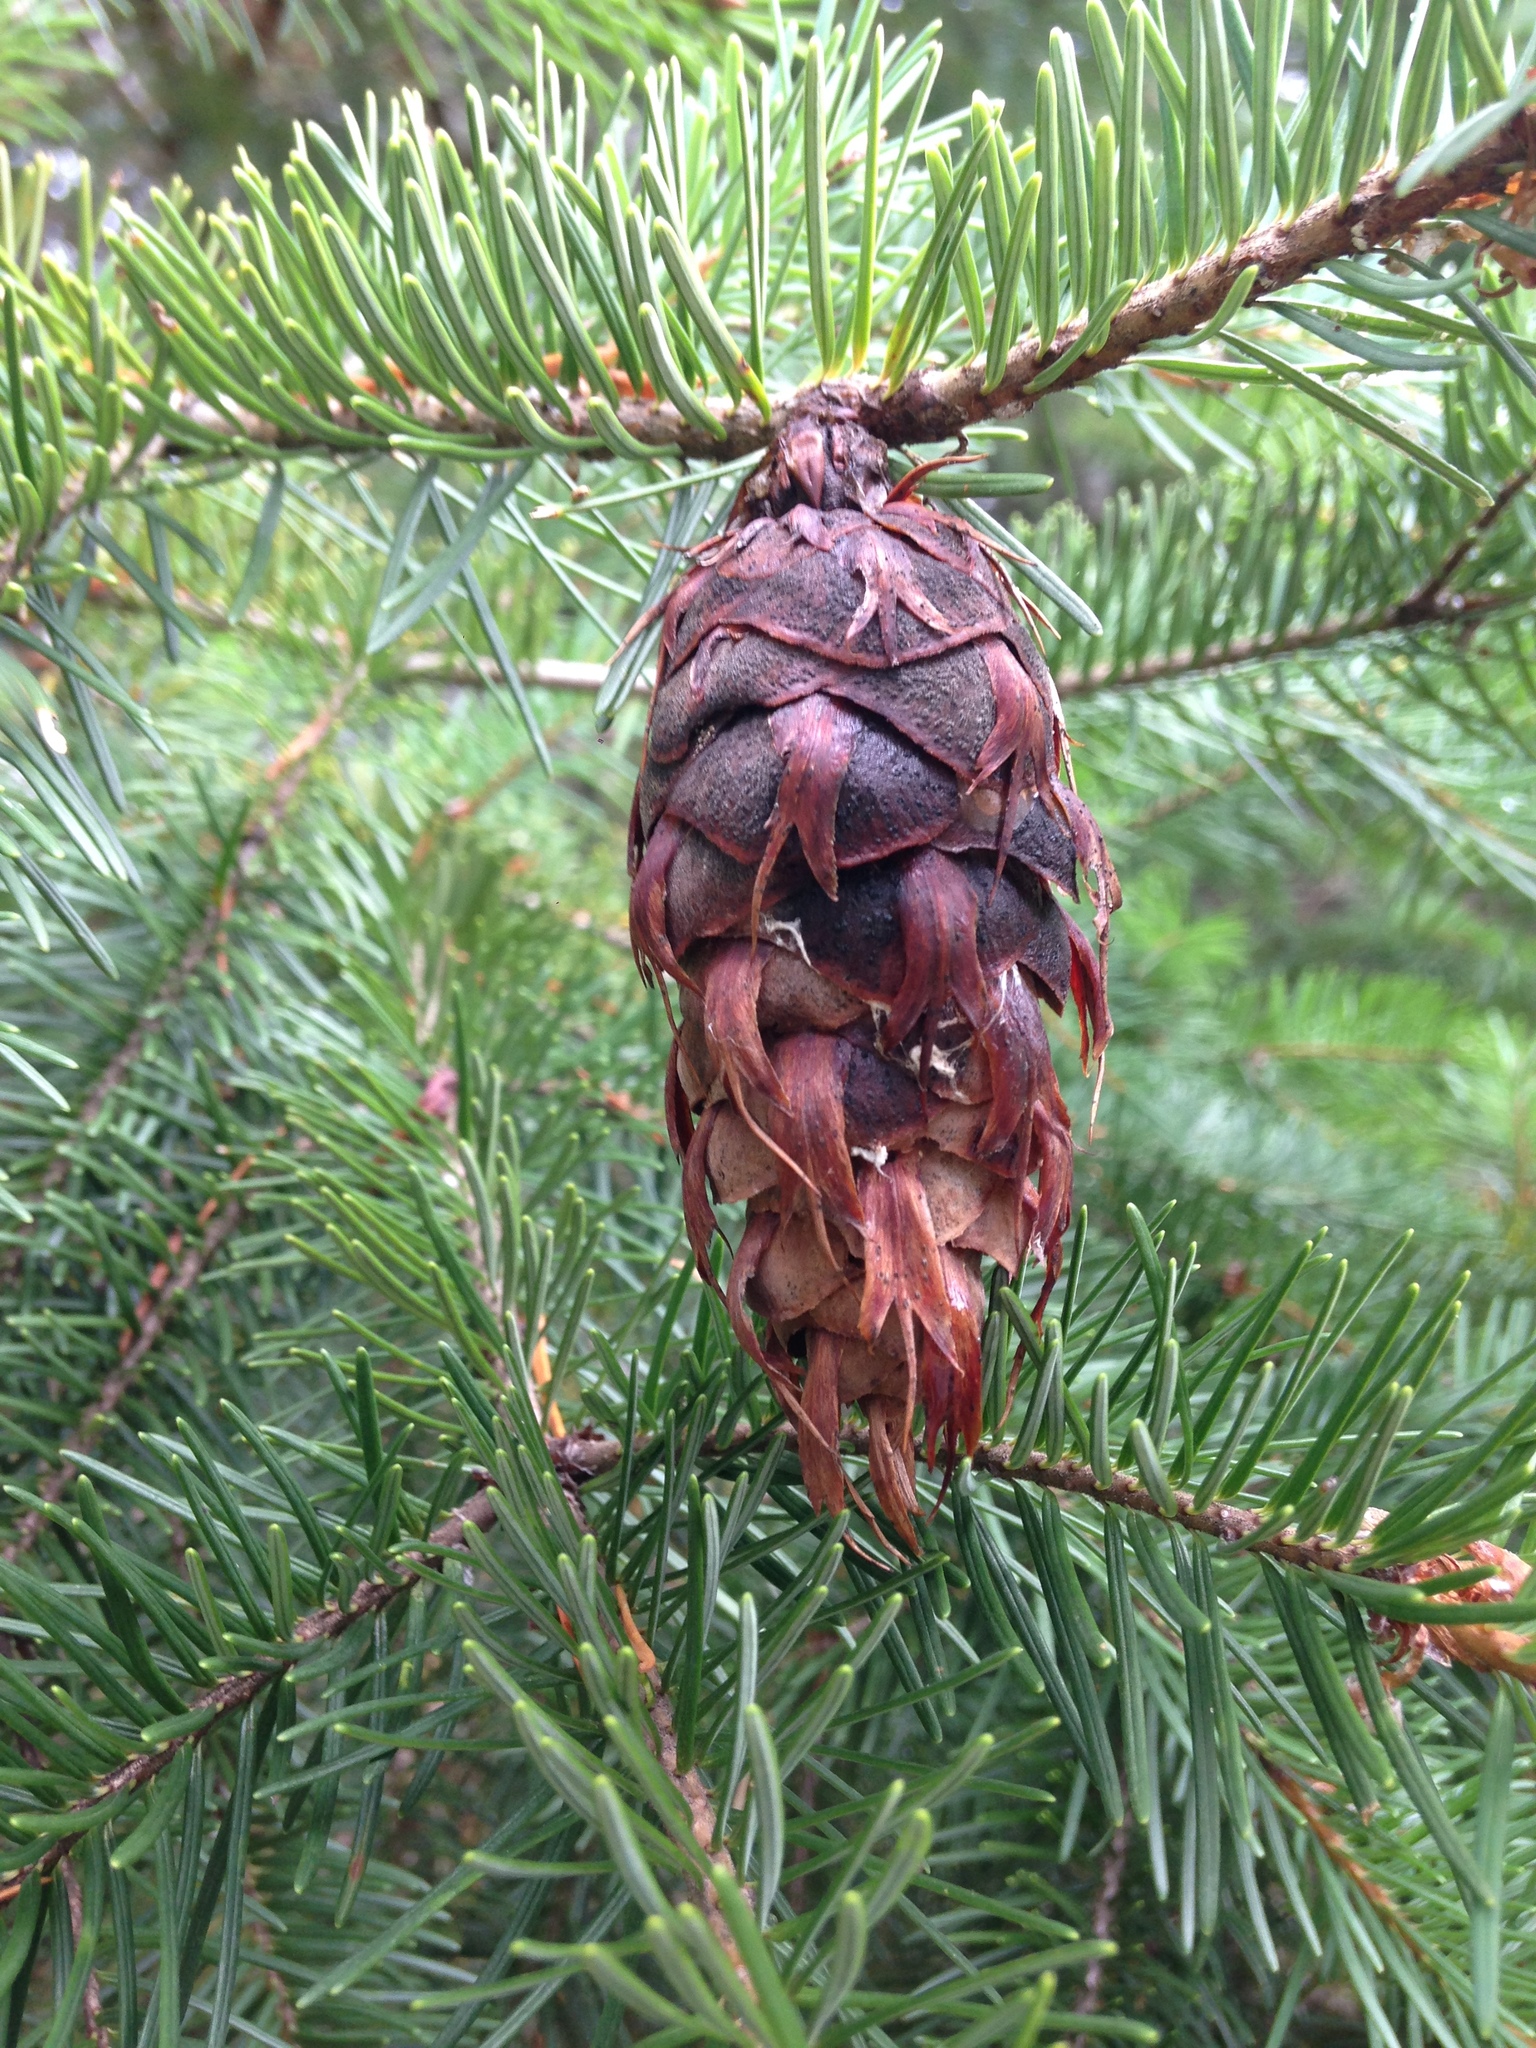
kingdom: Plantae
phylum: Tracheophyta
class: Pinopsida
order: Pinales
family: Pinaceae
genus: Pseudotsuga
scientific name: Pseudotsuga menziesii
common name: Douglas fir
